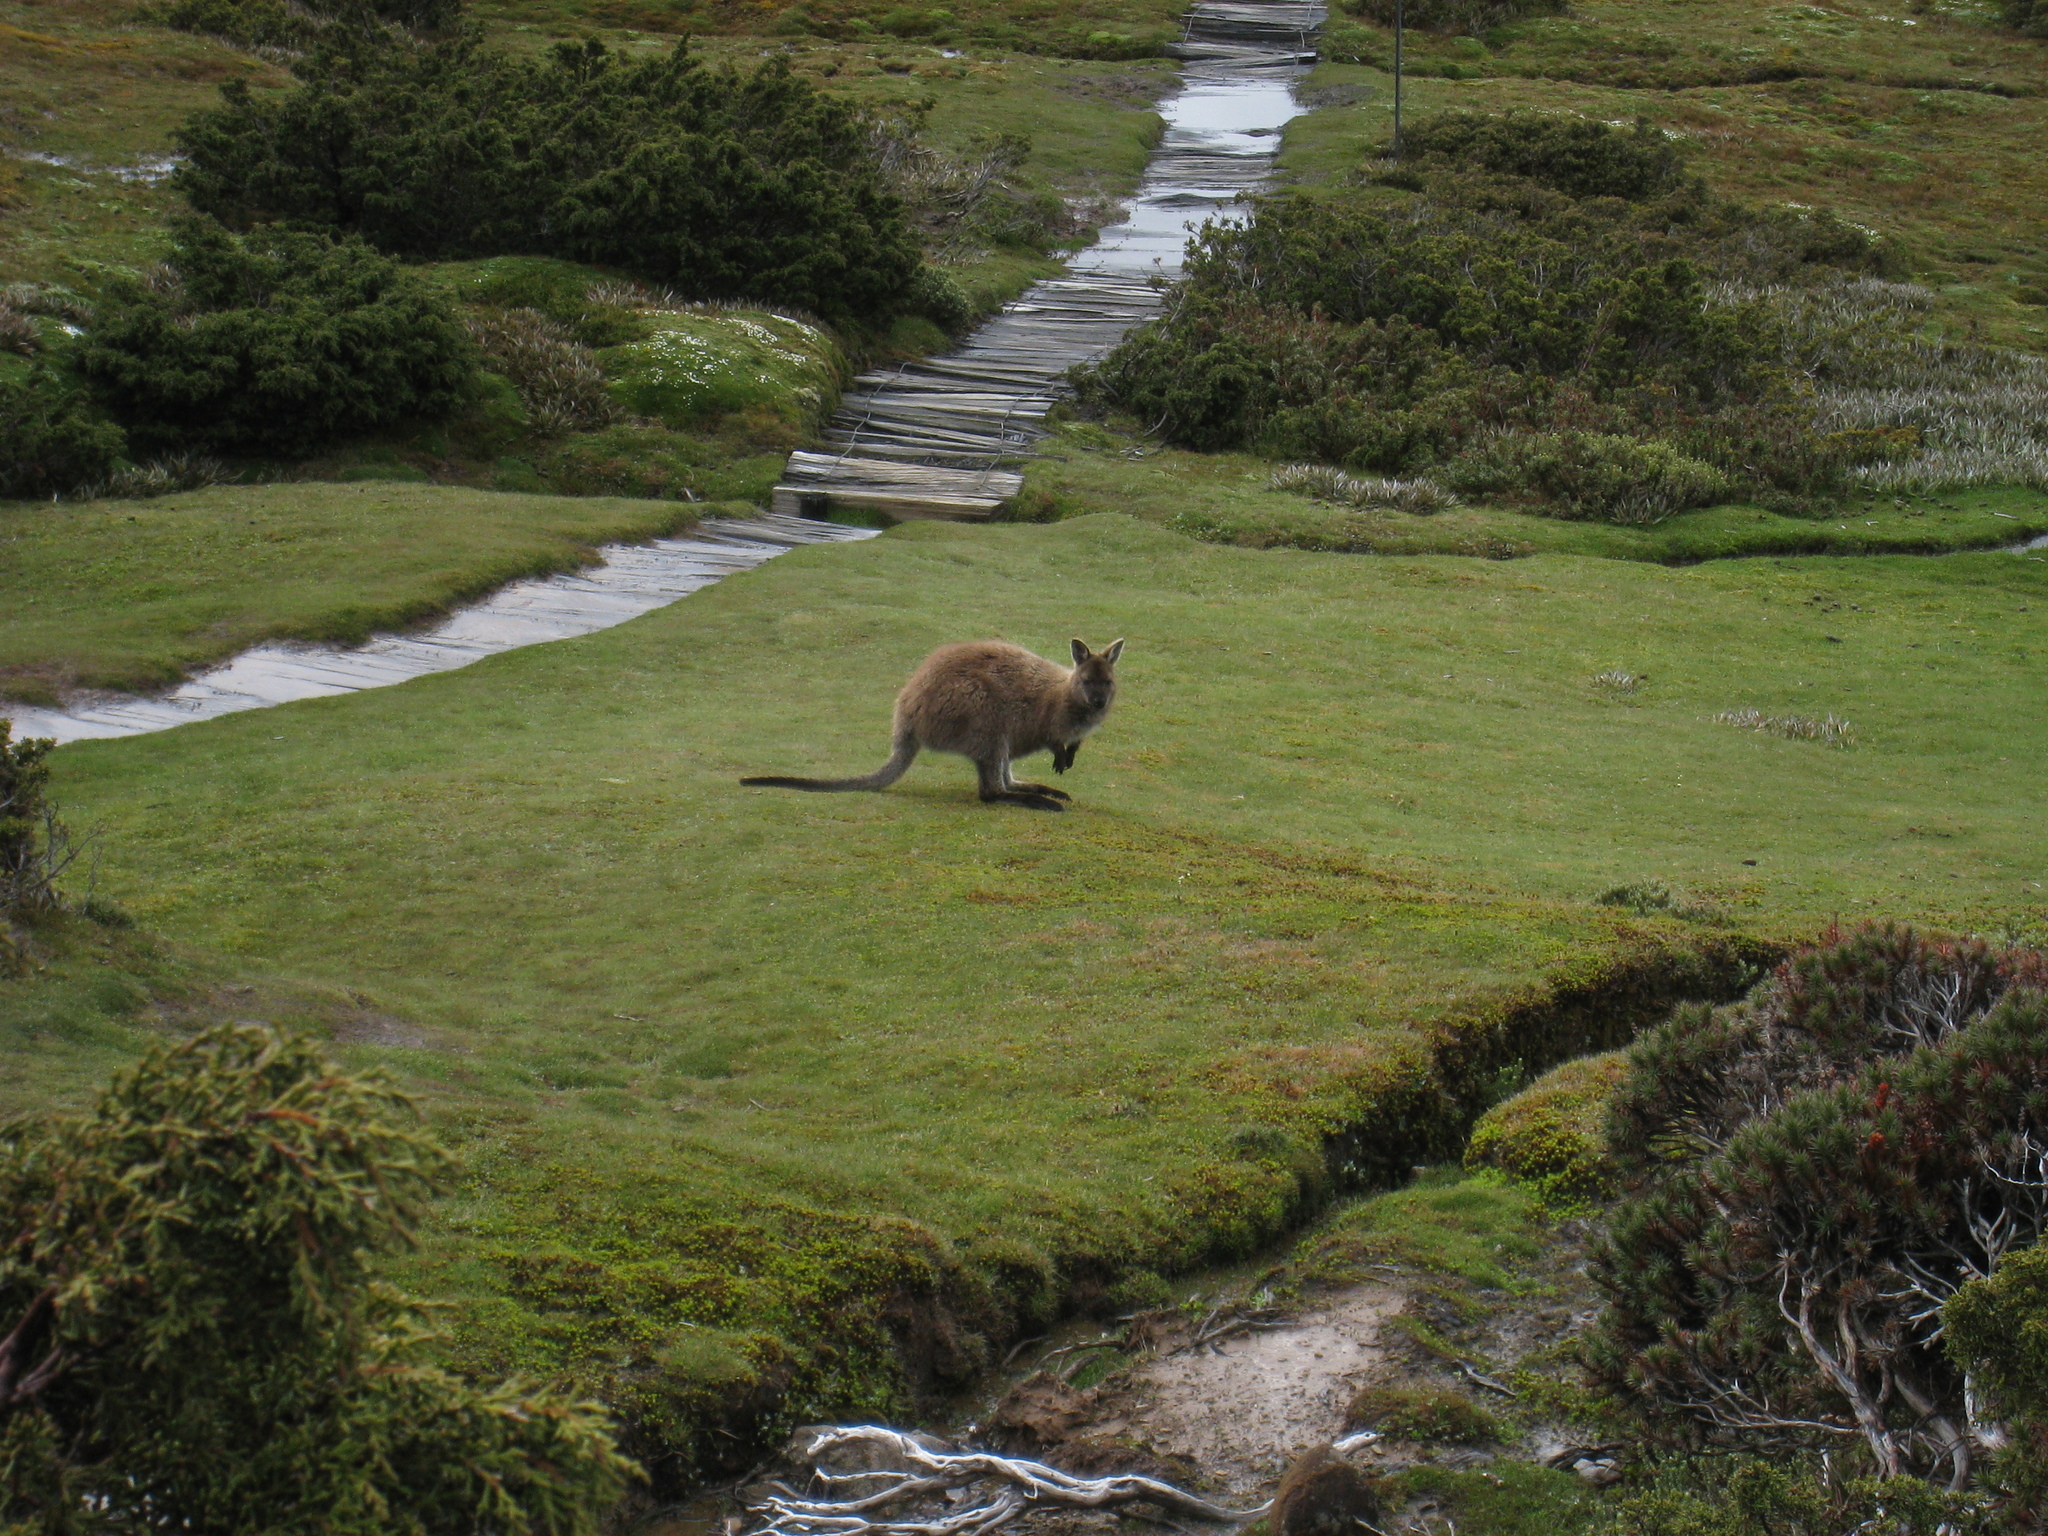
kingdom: Animalia
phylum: Chordata
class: Mammalia
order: Diprotodontia
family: Macropodidae
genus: Notamacropus
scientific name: Notamacropus rufogriseus
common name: Red-necked wallaby
